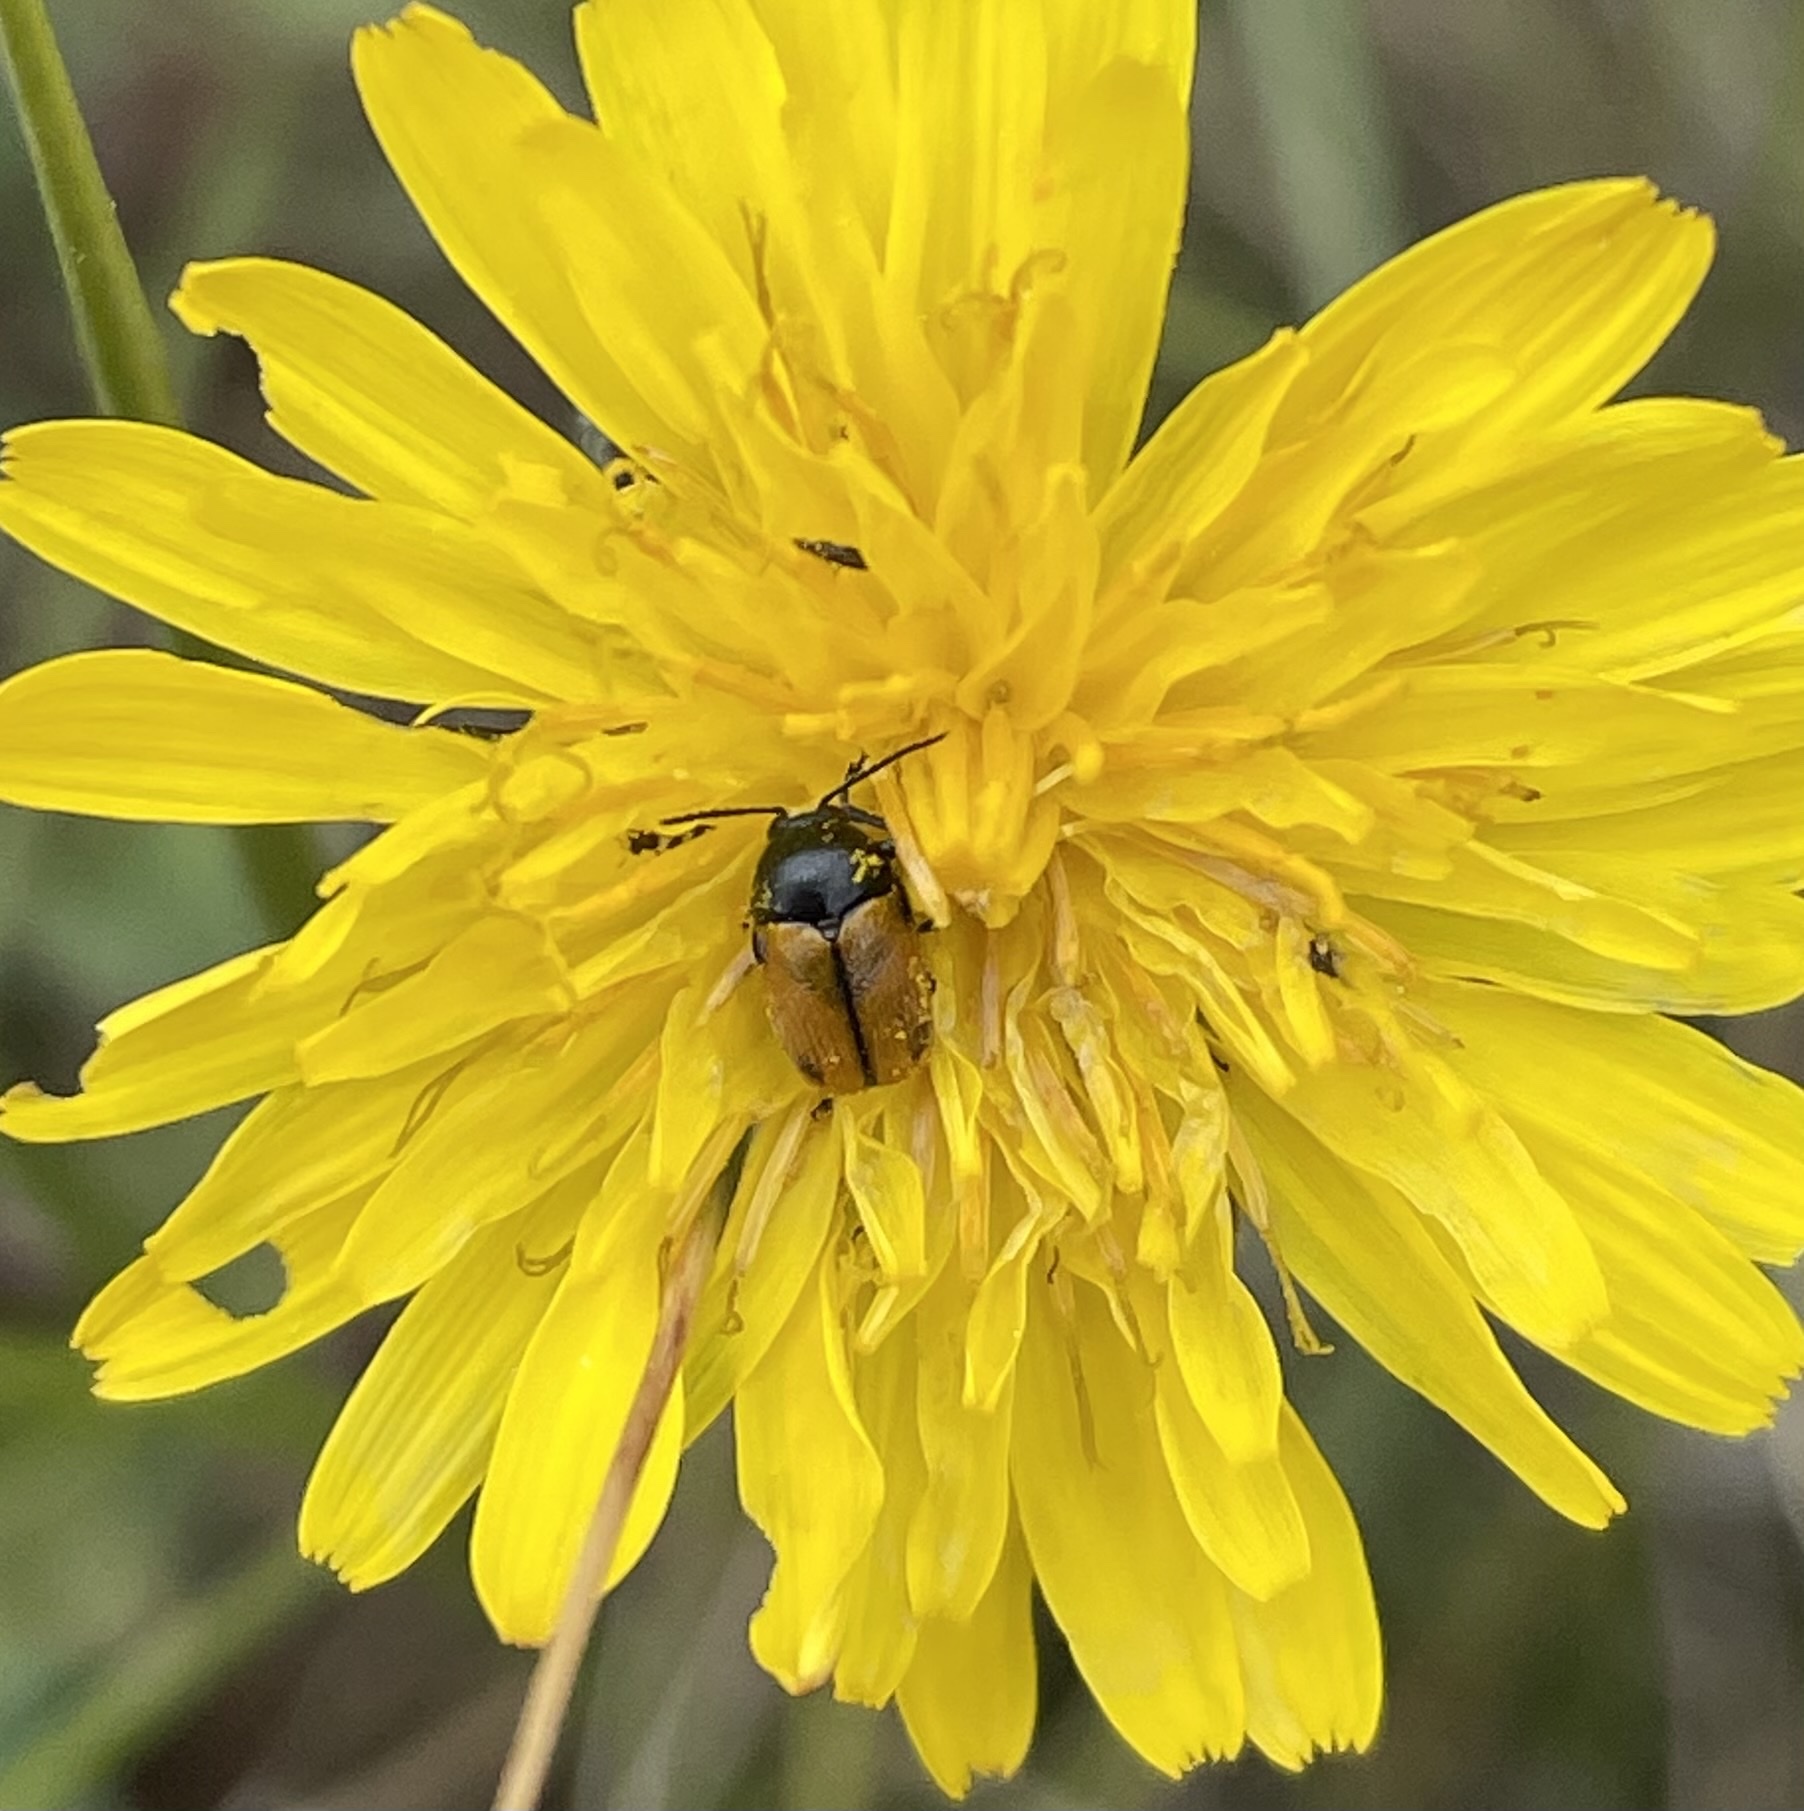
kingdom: Animalia
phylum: Arthropoda
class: Insecta
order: Coleoptera
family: Chrysomelidae
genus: Cryptocephalus
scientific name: Cryptocephalus rugicollis
